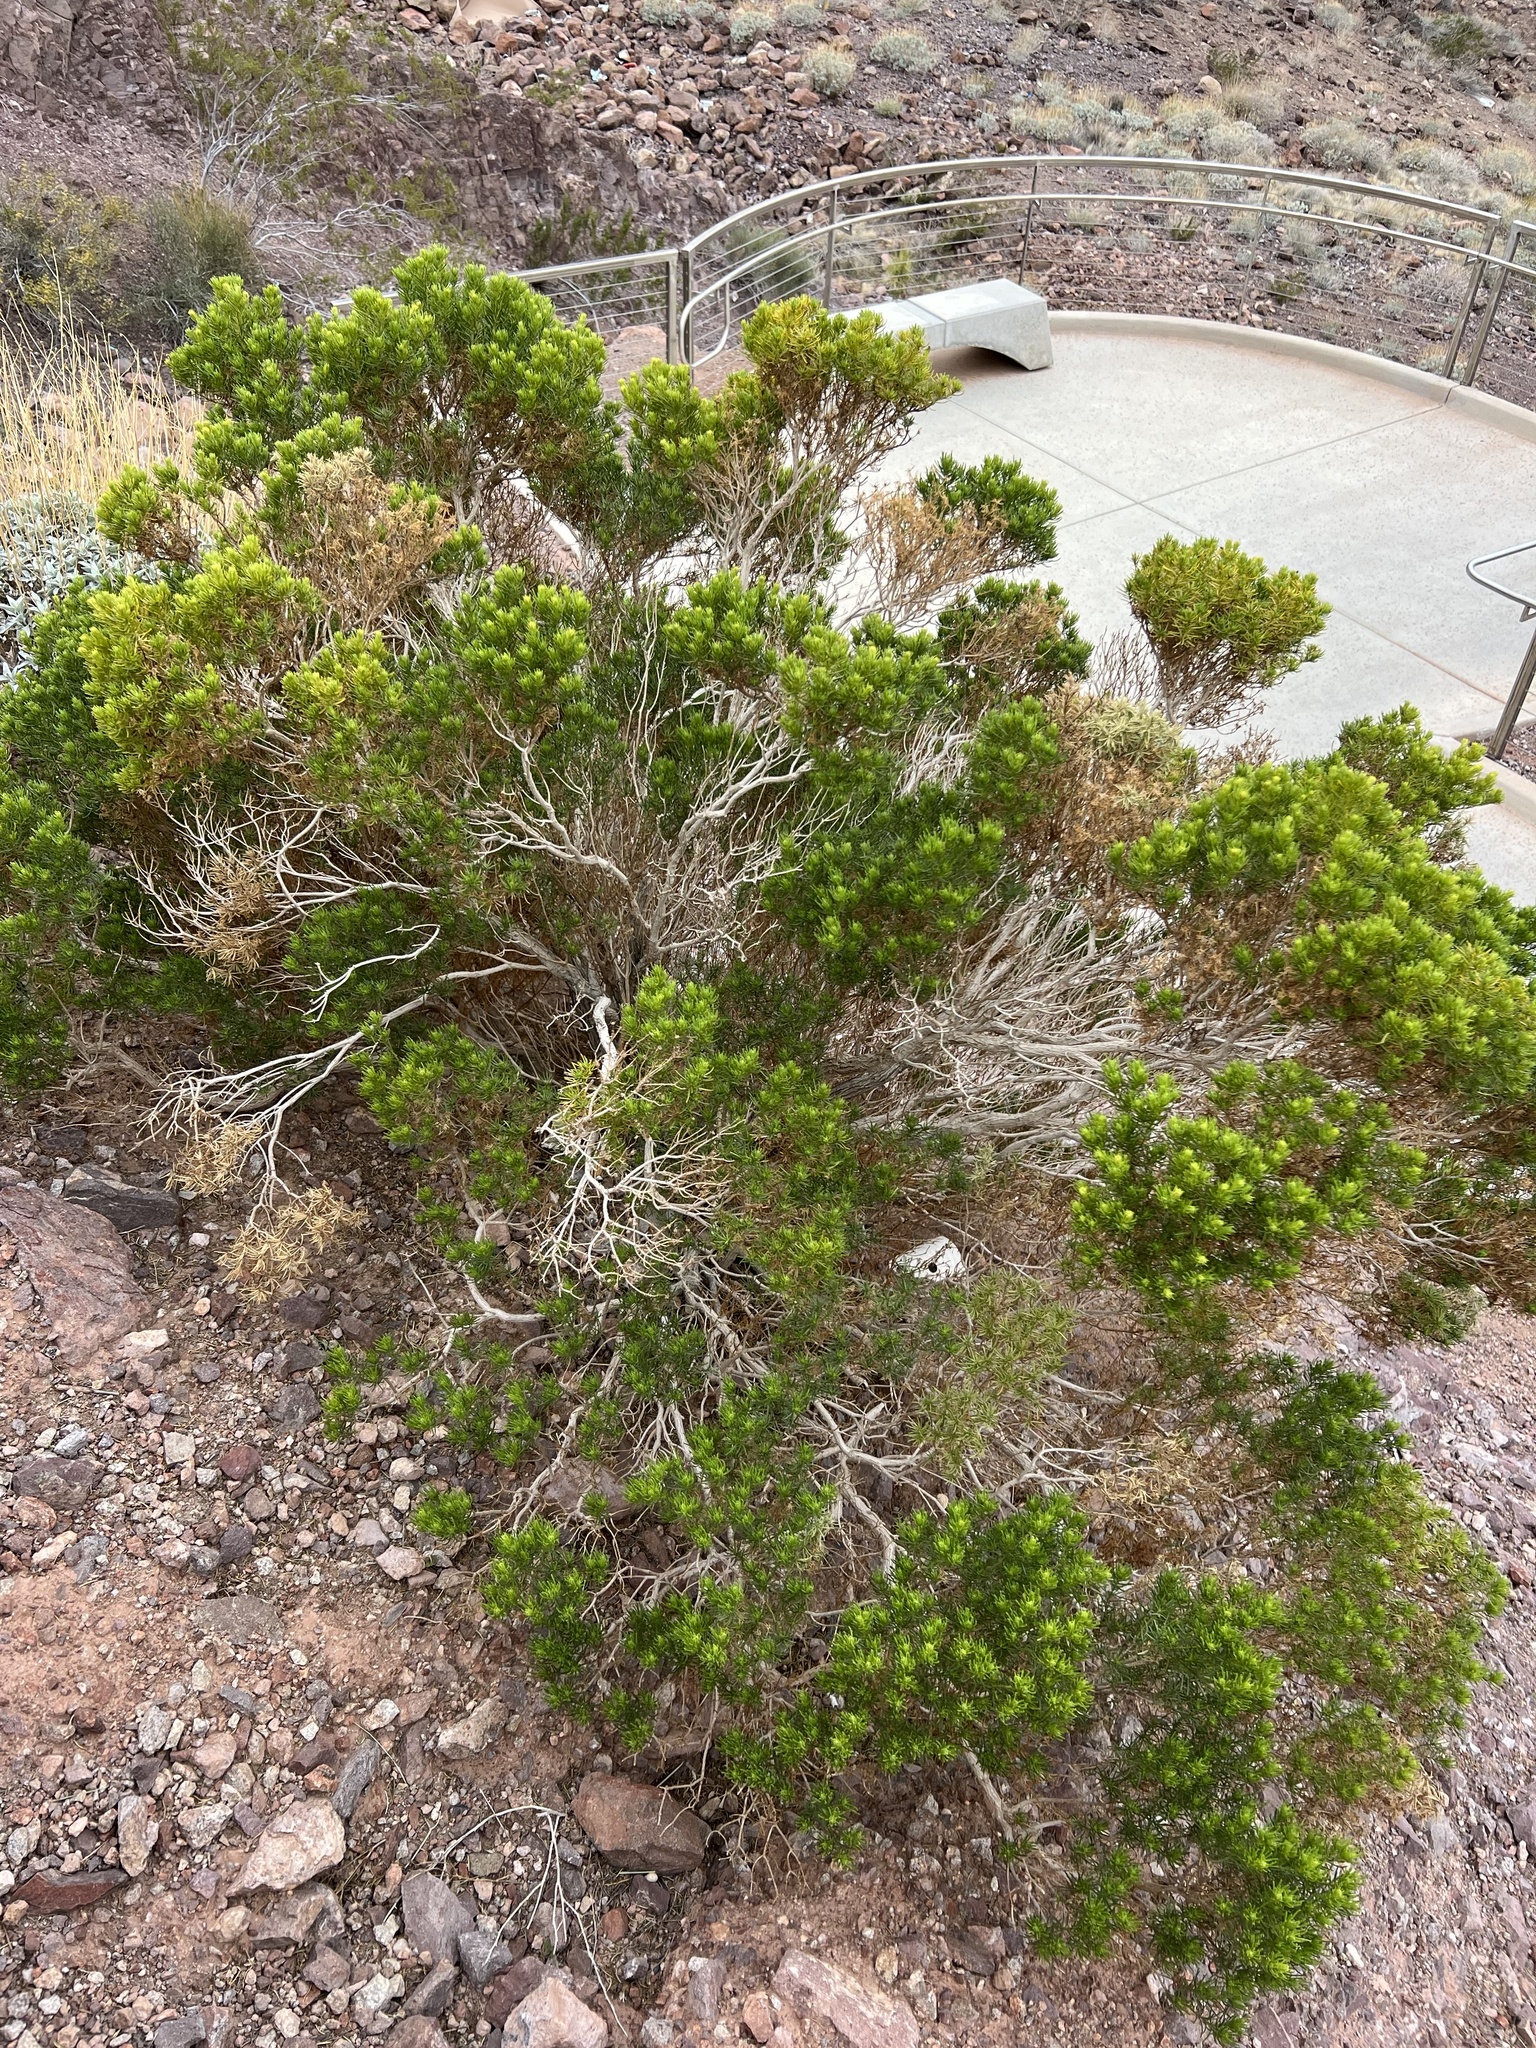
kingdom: Plantae
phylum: Tracheophyta
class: Magnoliopsida
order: Asterales
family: Asteraceae
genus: Peucephyllum
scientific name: Peucephyllum schottii
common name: Pygmy-cedar
